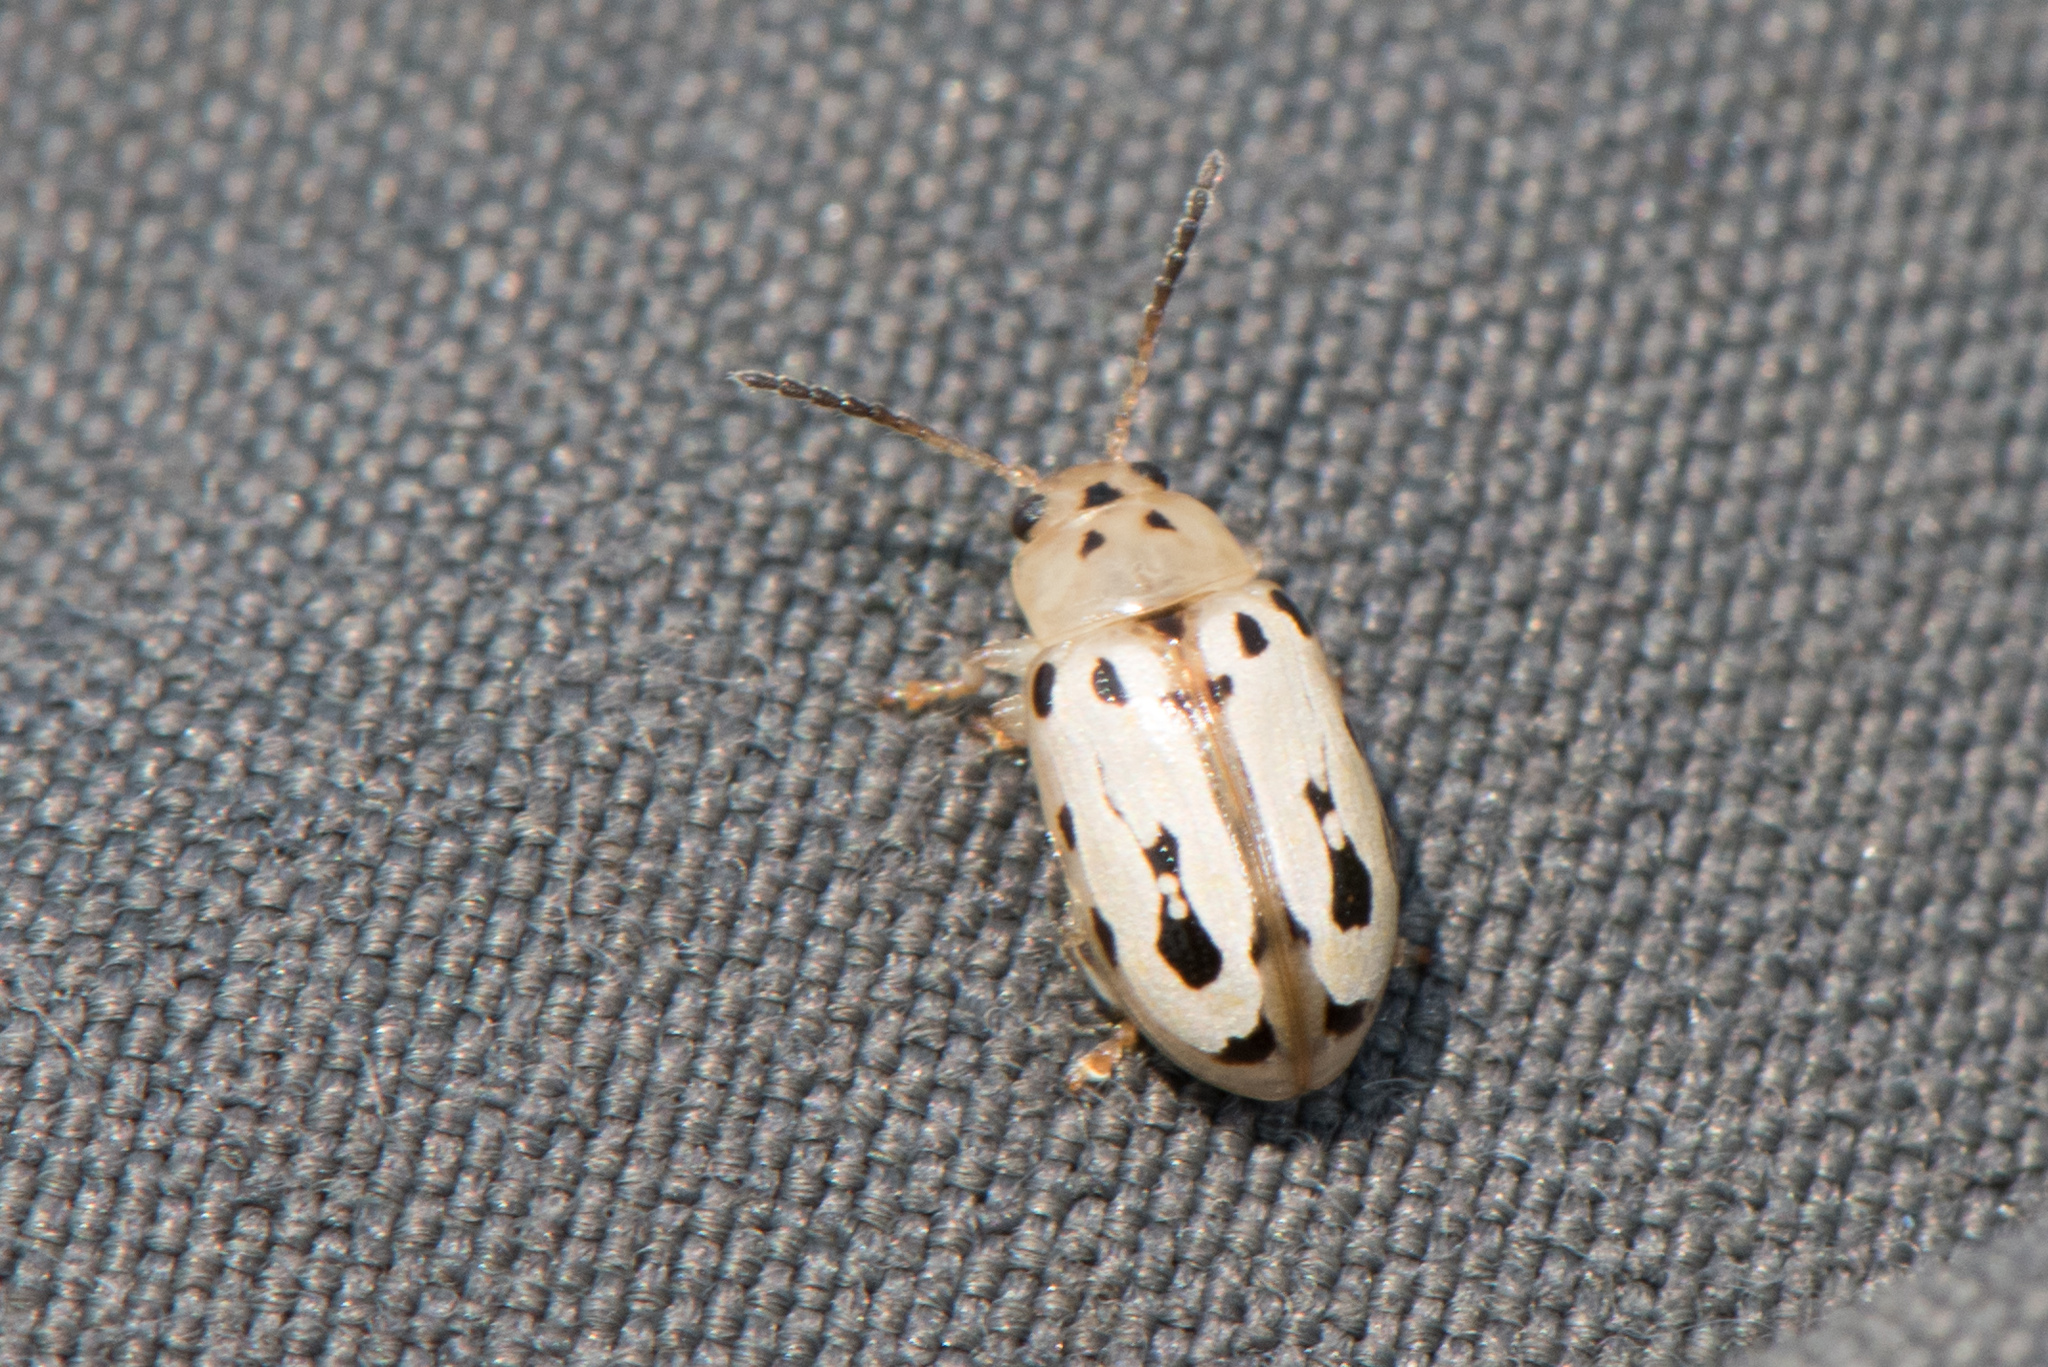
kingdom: Animalia
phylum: Arthropoda
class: Insecta
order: Coleoptera
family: Chrysomelidae
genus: Chalcolampra
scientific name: Chalcolampra octodecimguttata
